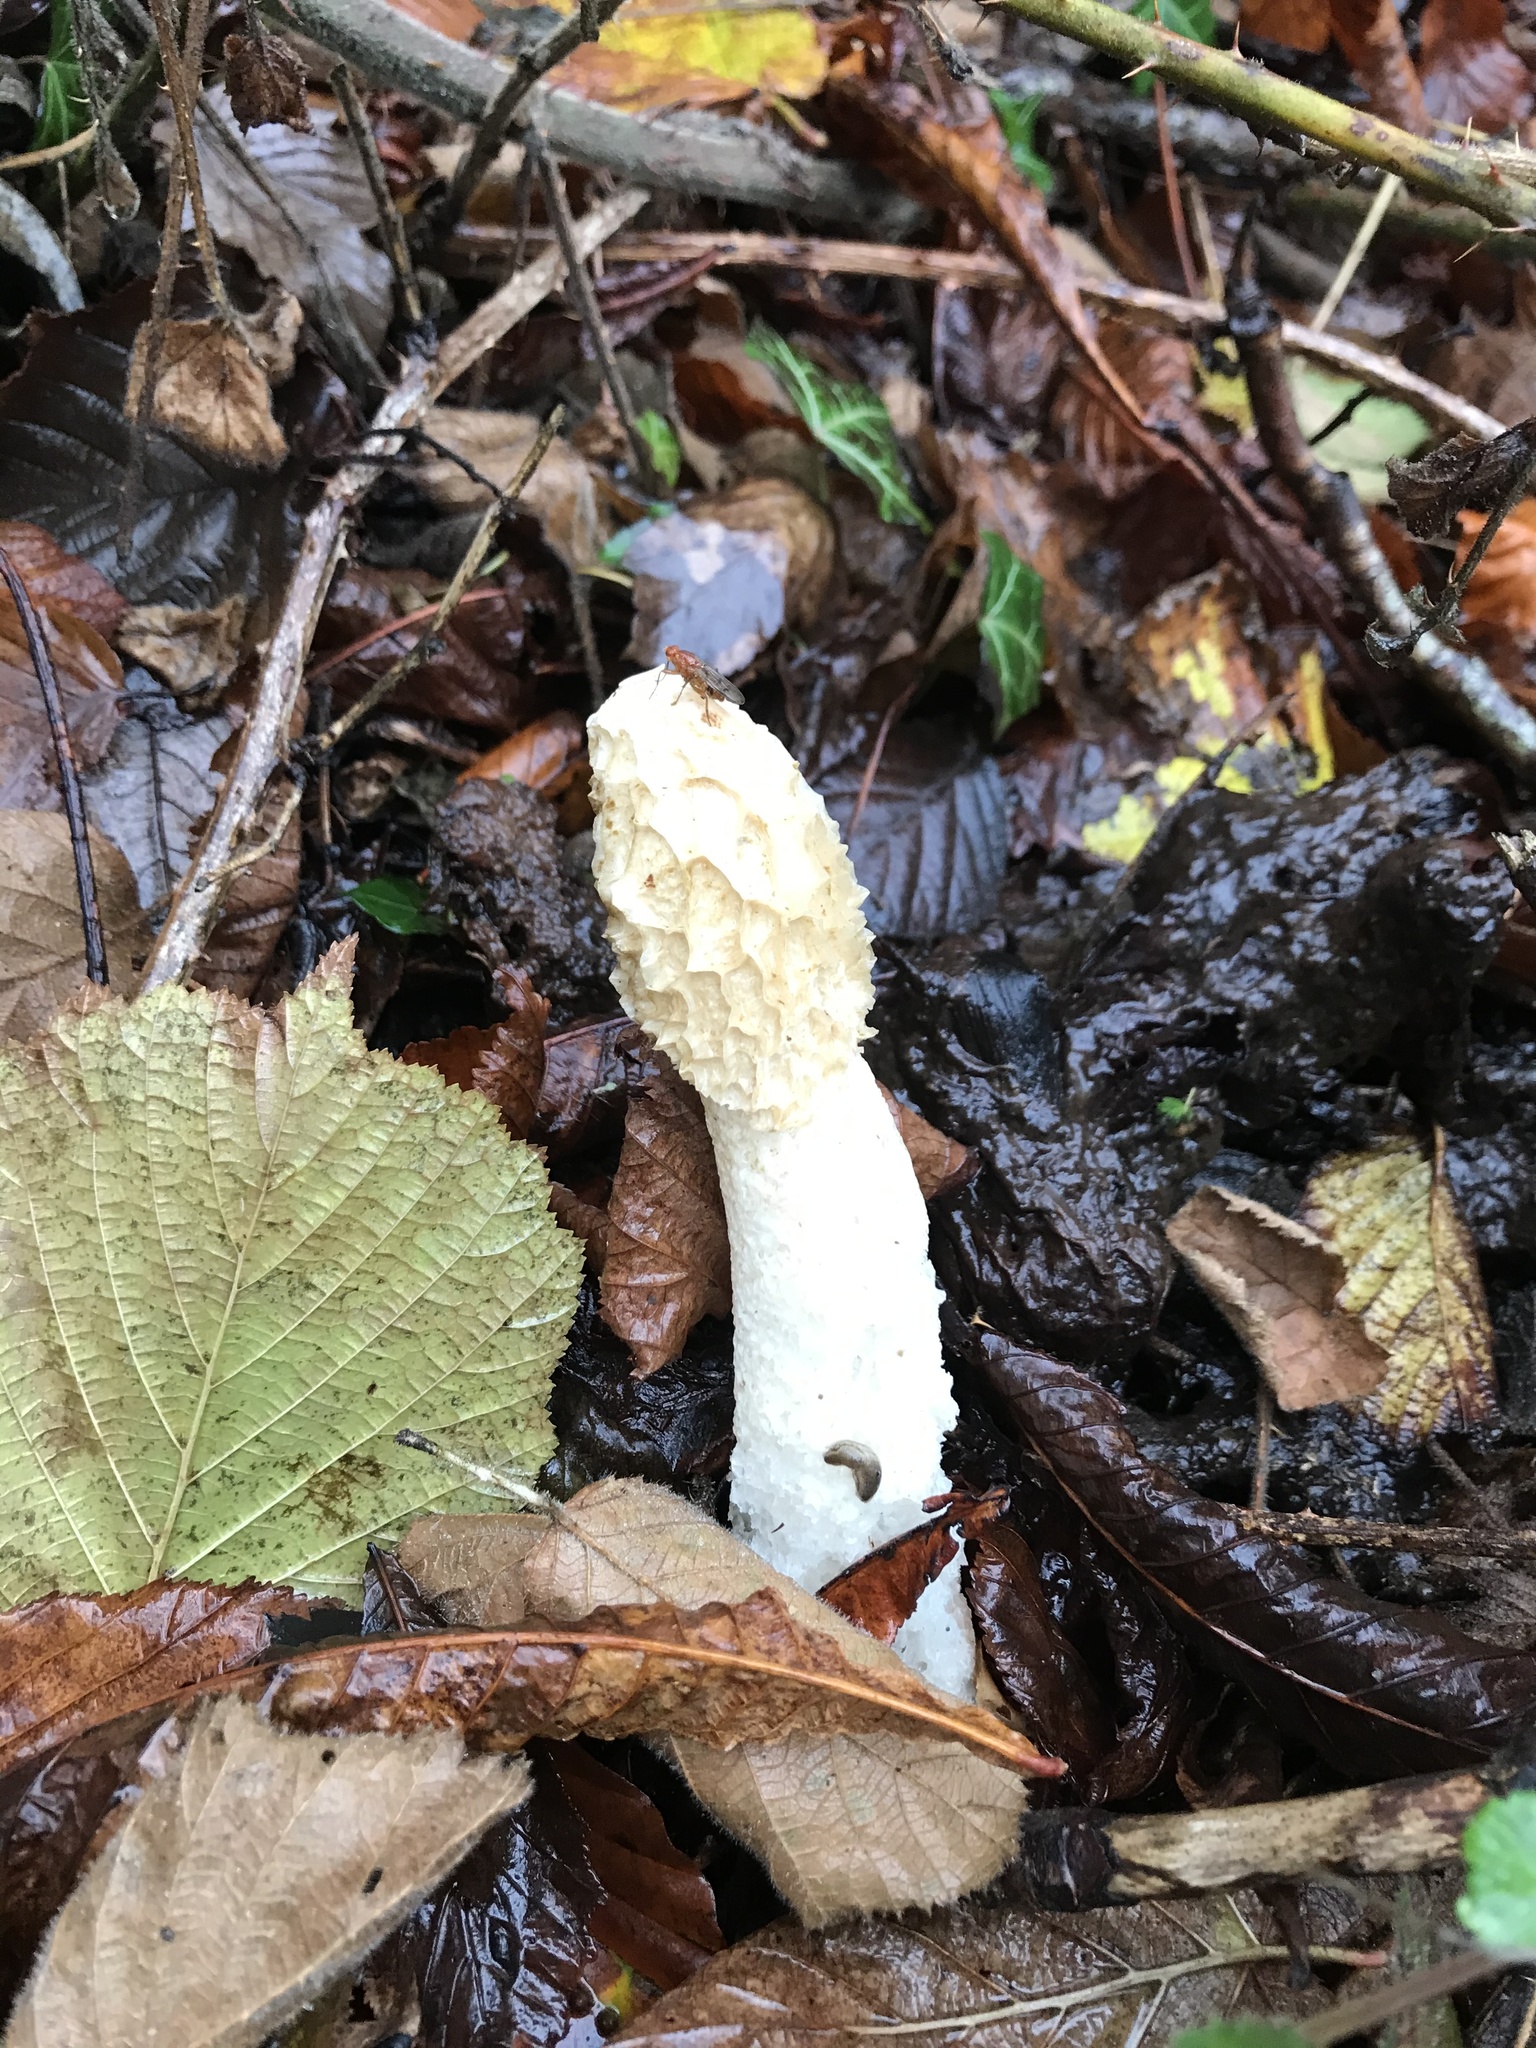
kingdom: Fungi
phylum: Basidiomycota
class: Agaricomycetes
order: Phallales
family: Phallaceae
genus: Phallus
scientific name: Phallus impudicus
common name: Common stinkhorn
